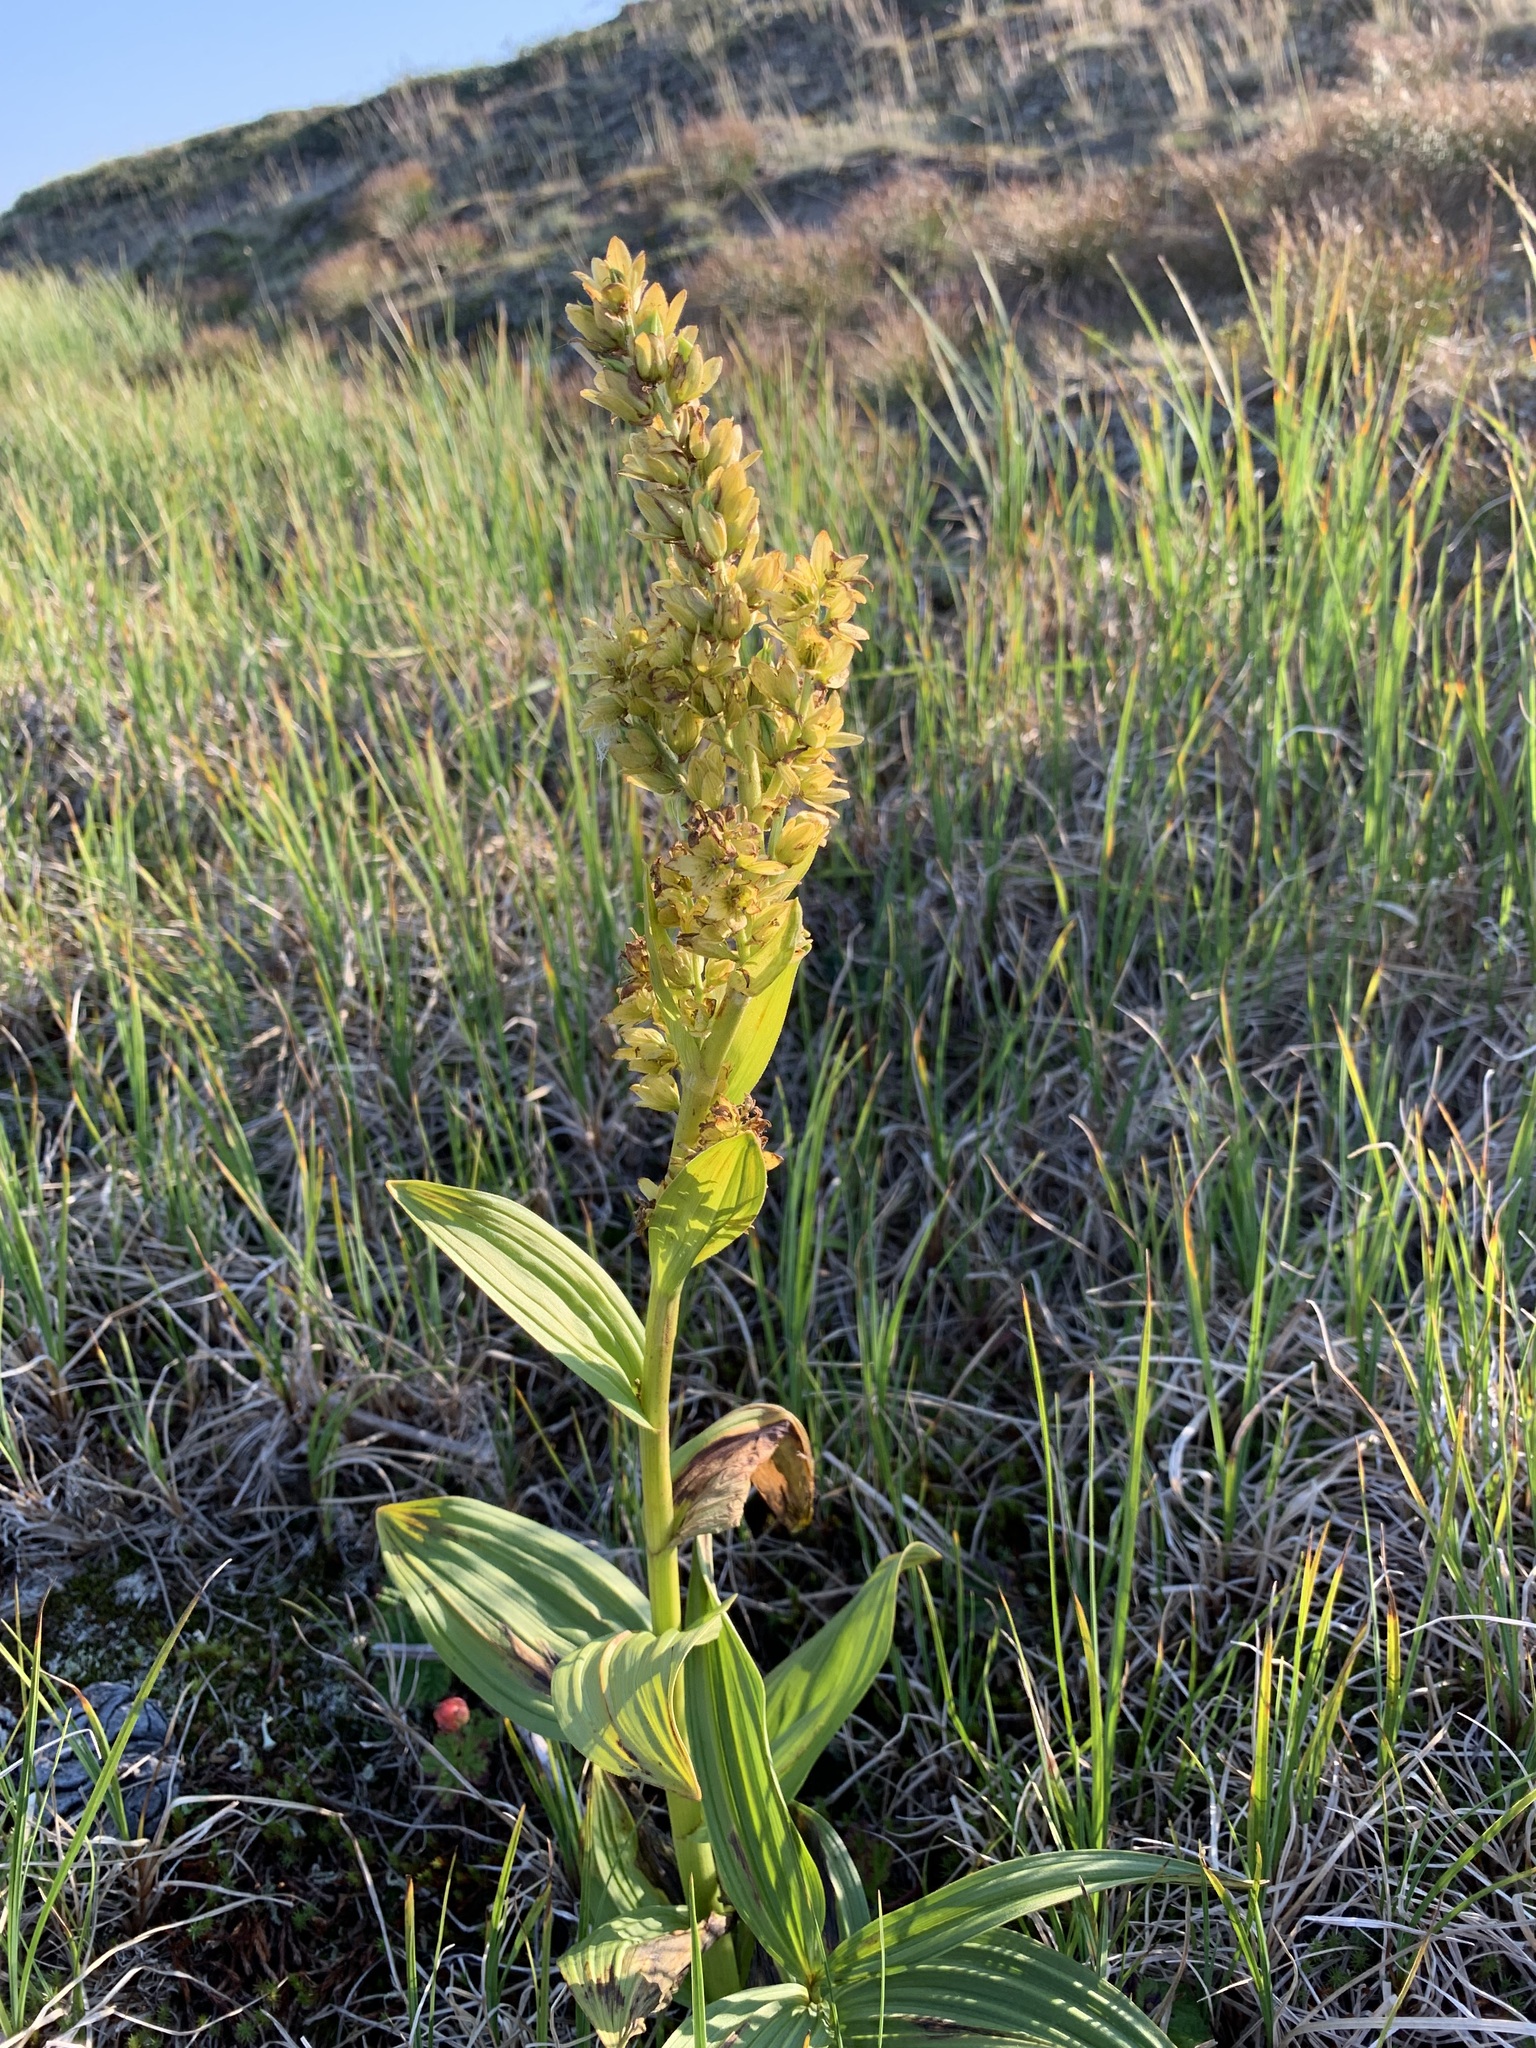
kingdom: Plantae
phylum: Tracheophyta
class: Liliopsida
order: Liliales
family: Melanthiaceae
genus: Veratrum
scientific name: Veratrum lobelianum
